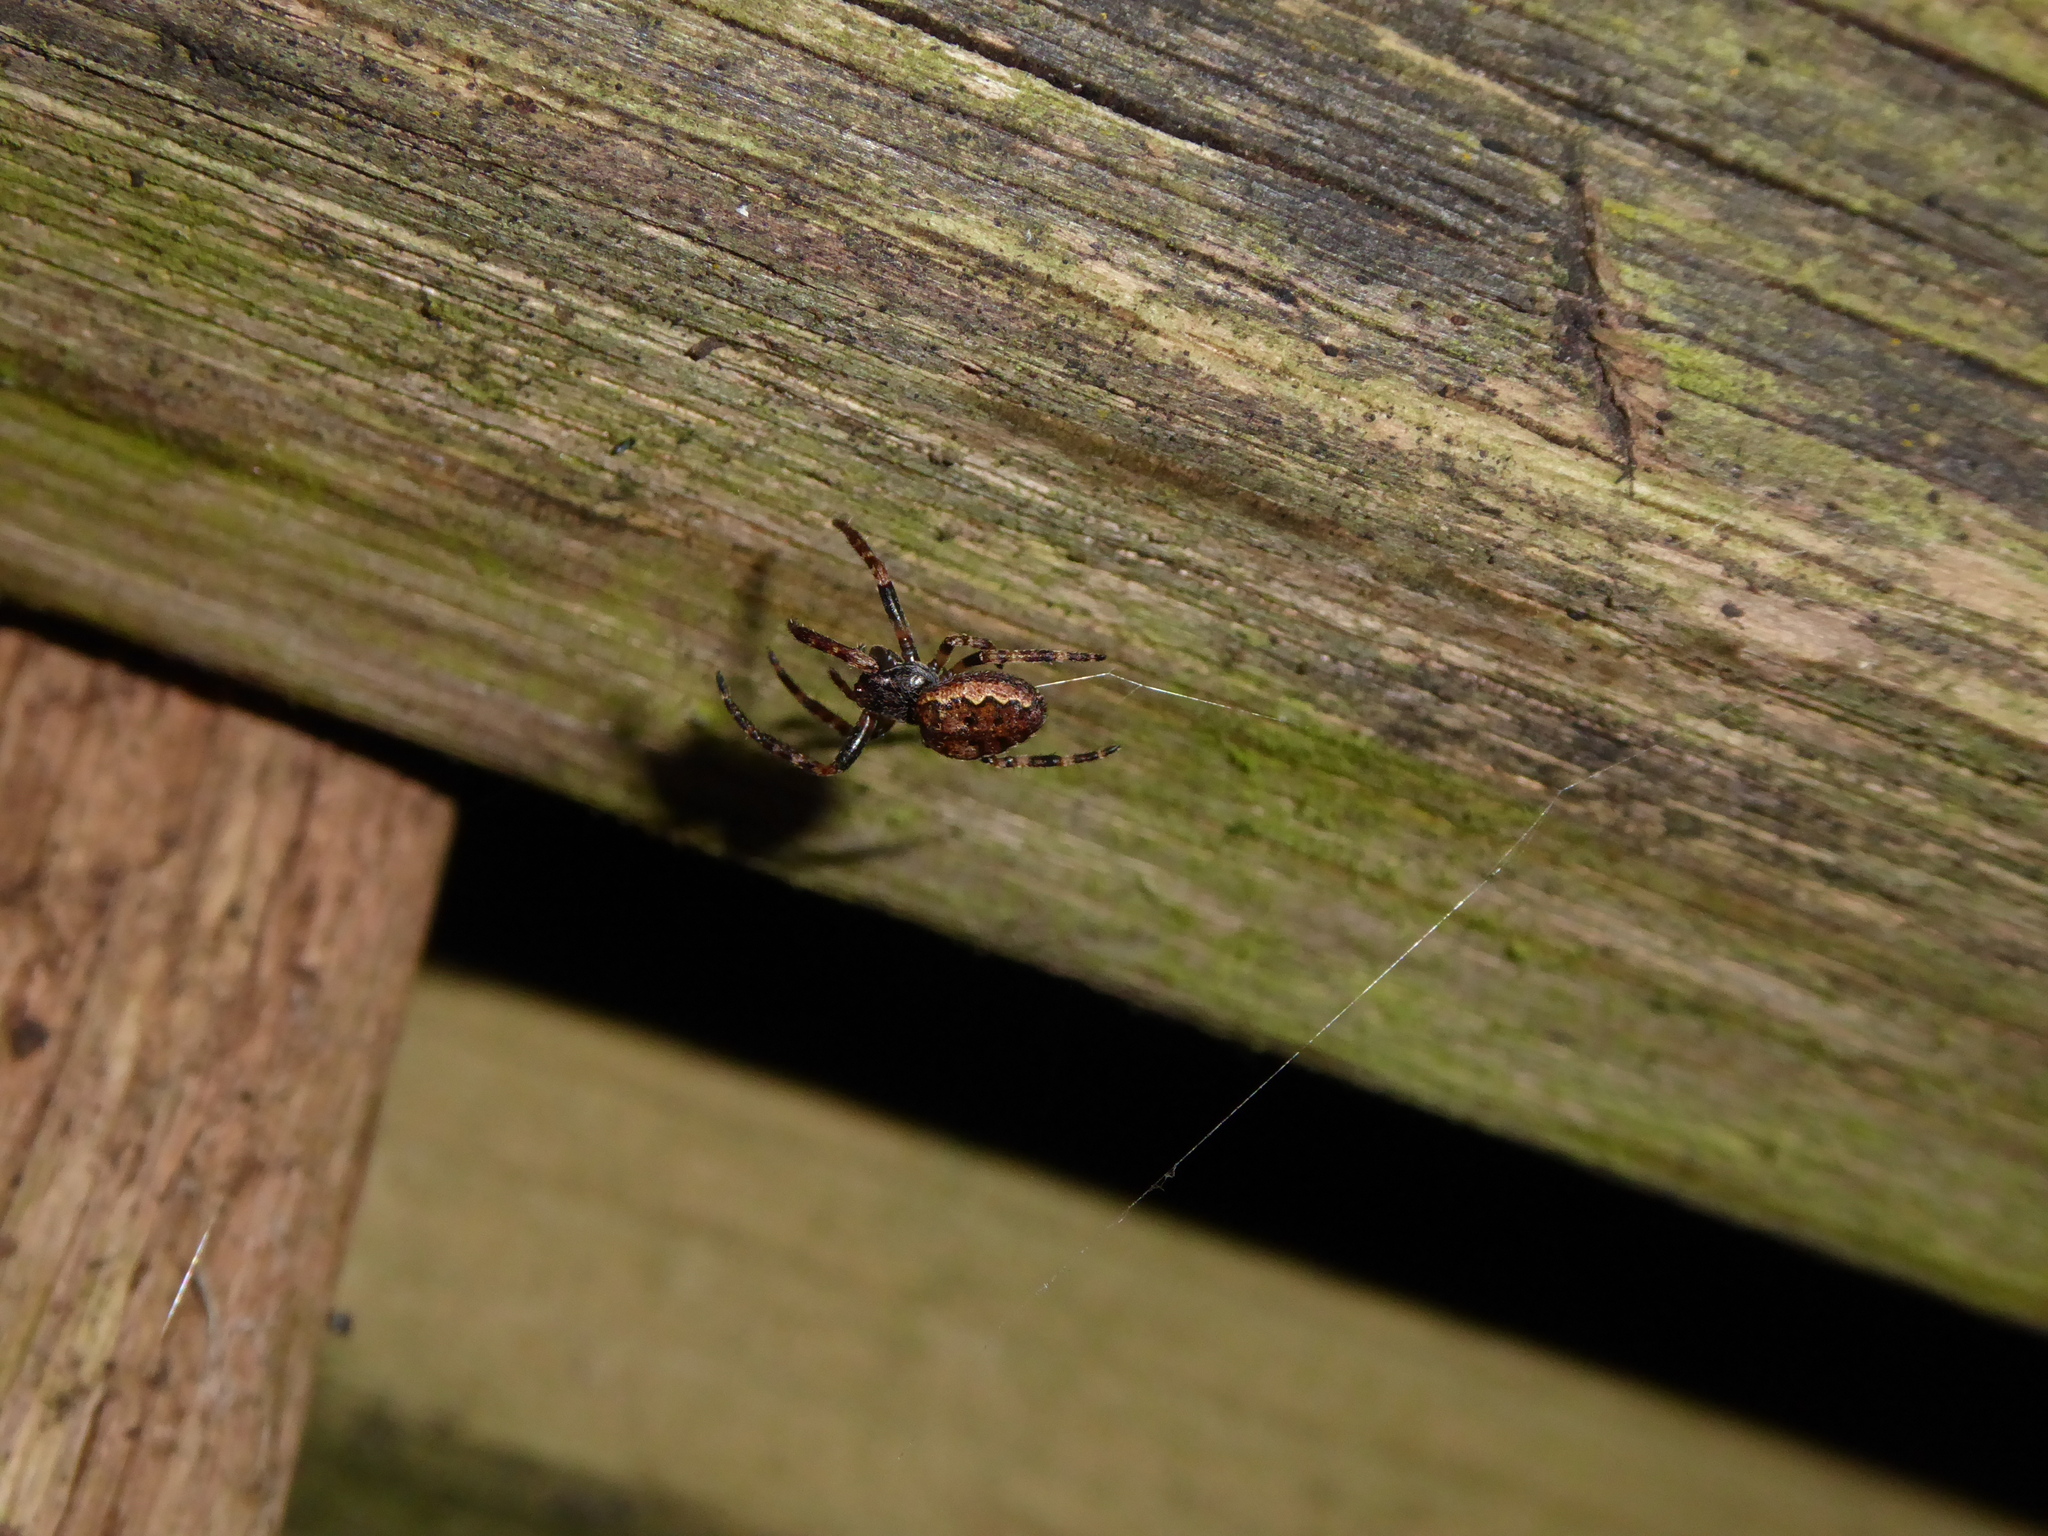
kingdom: Animalia
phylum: Arthropoda
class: Arachnida
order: Araneae
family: Araneidae
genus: Nuctenea
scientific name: Nuctenea umbratica
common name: Toad spider
